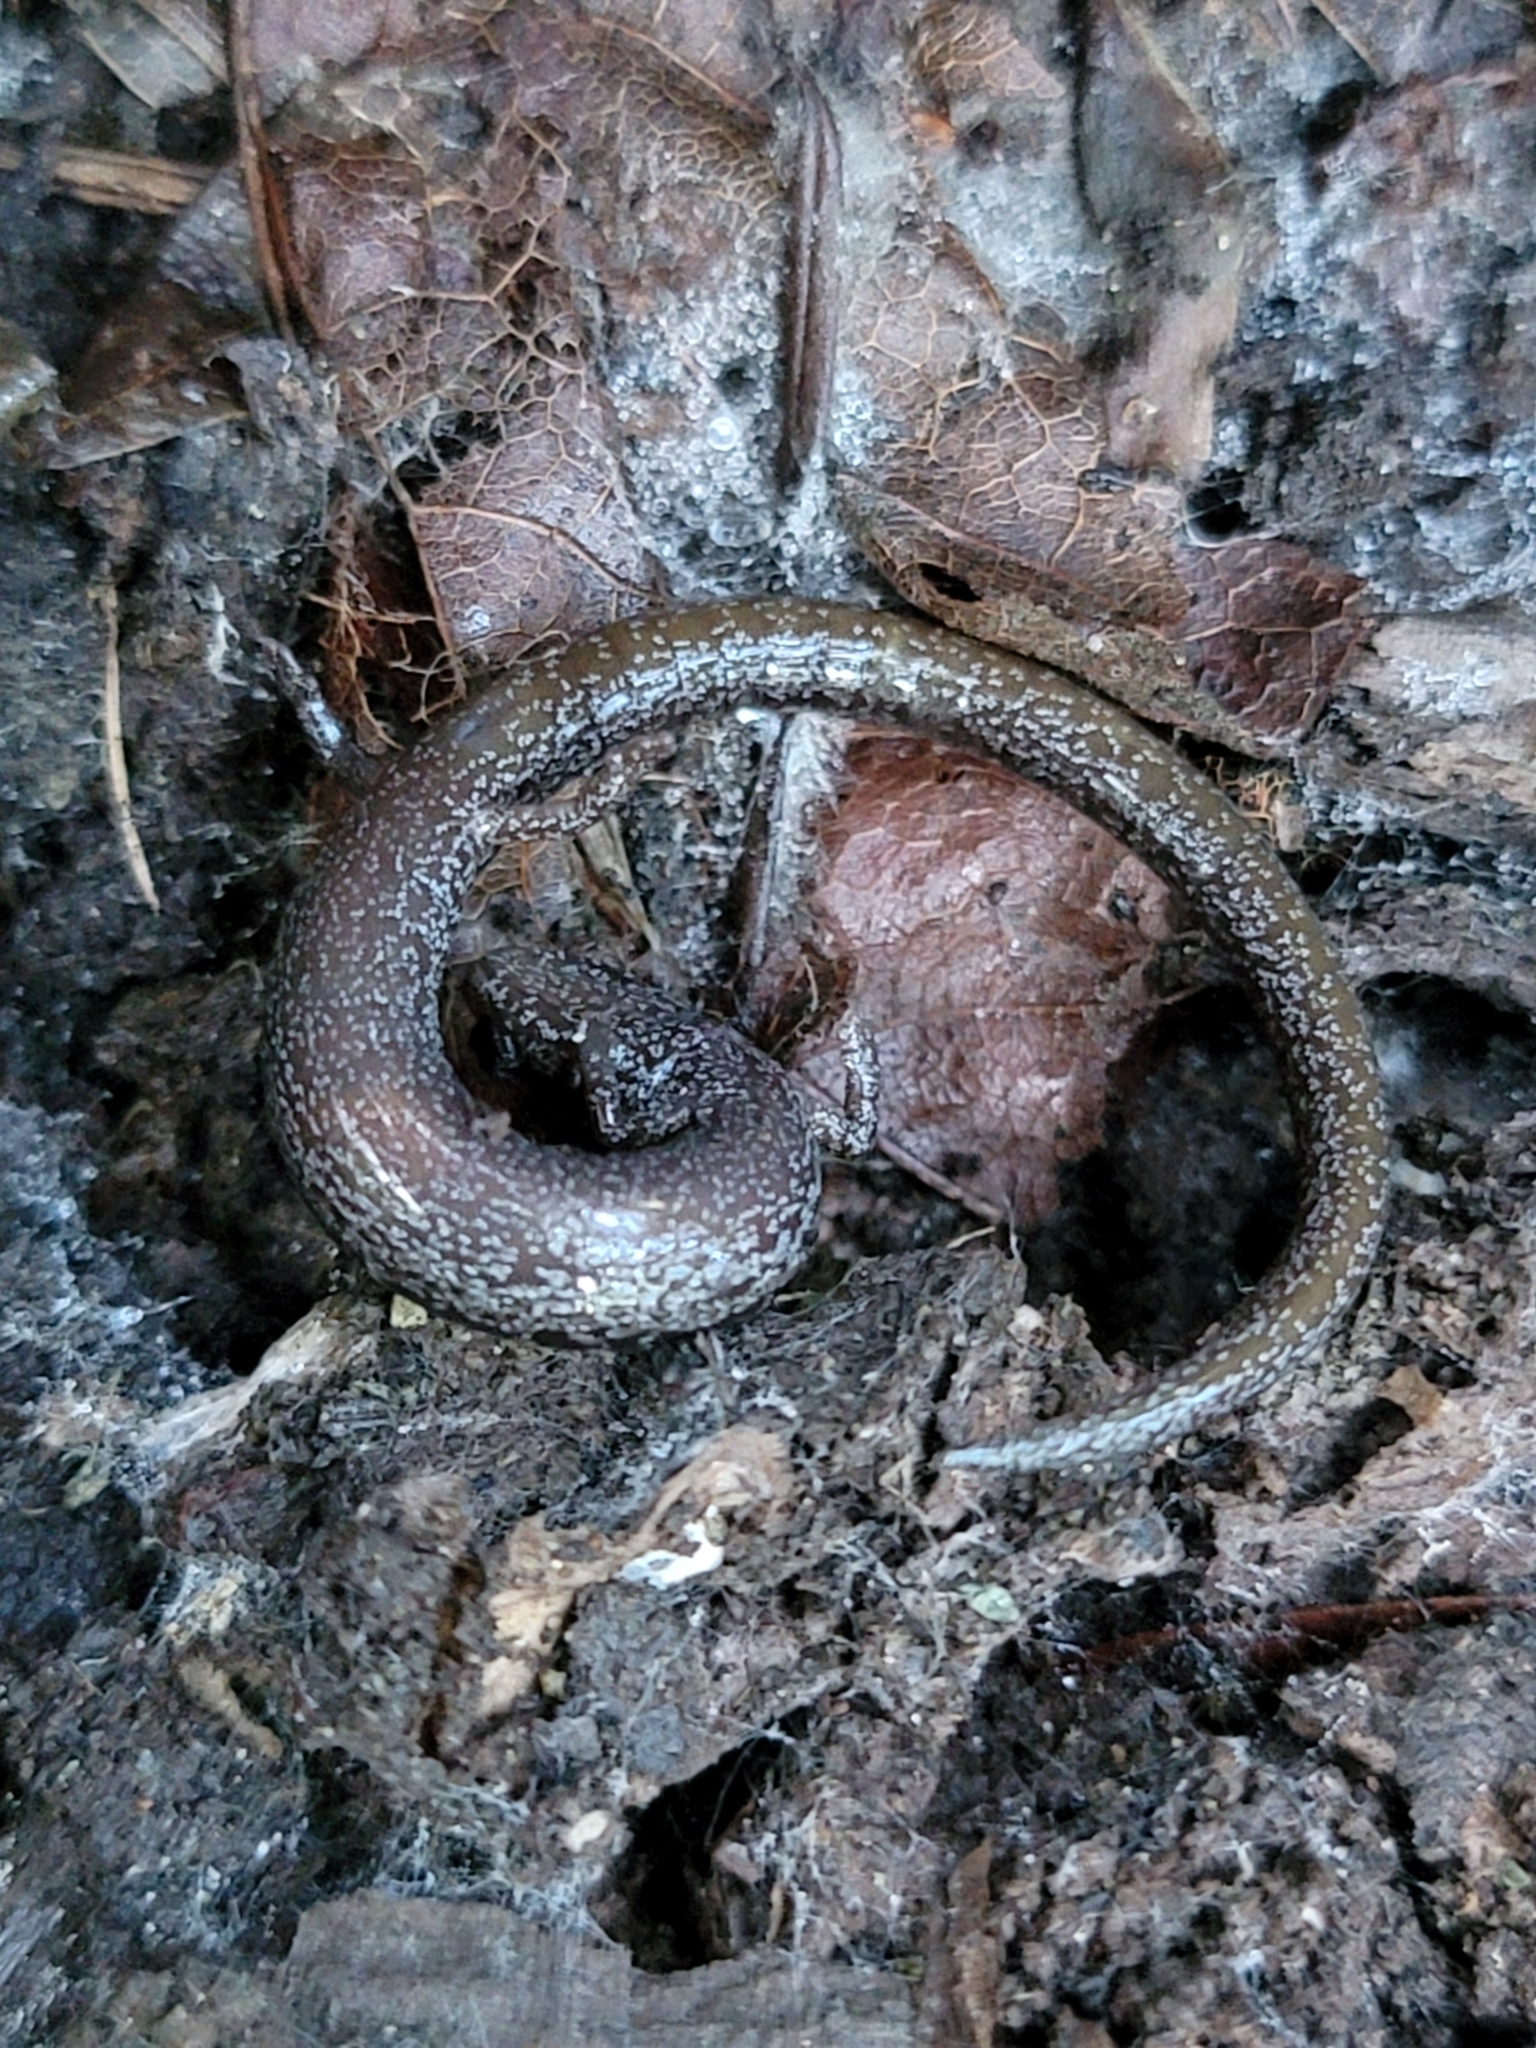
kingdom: Animalia
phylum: Chordata
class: Amphibia
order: Caudata
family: Plethodontidae
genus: Batrachoseps
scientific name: Batrachoseps attenuatus
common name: California slender salamander
